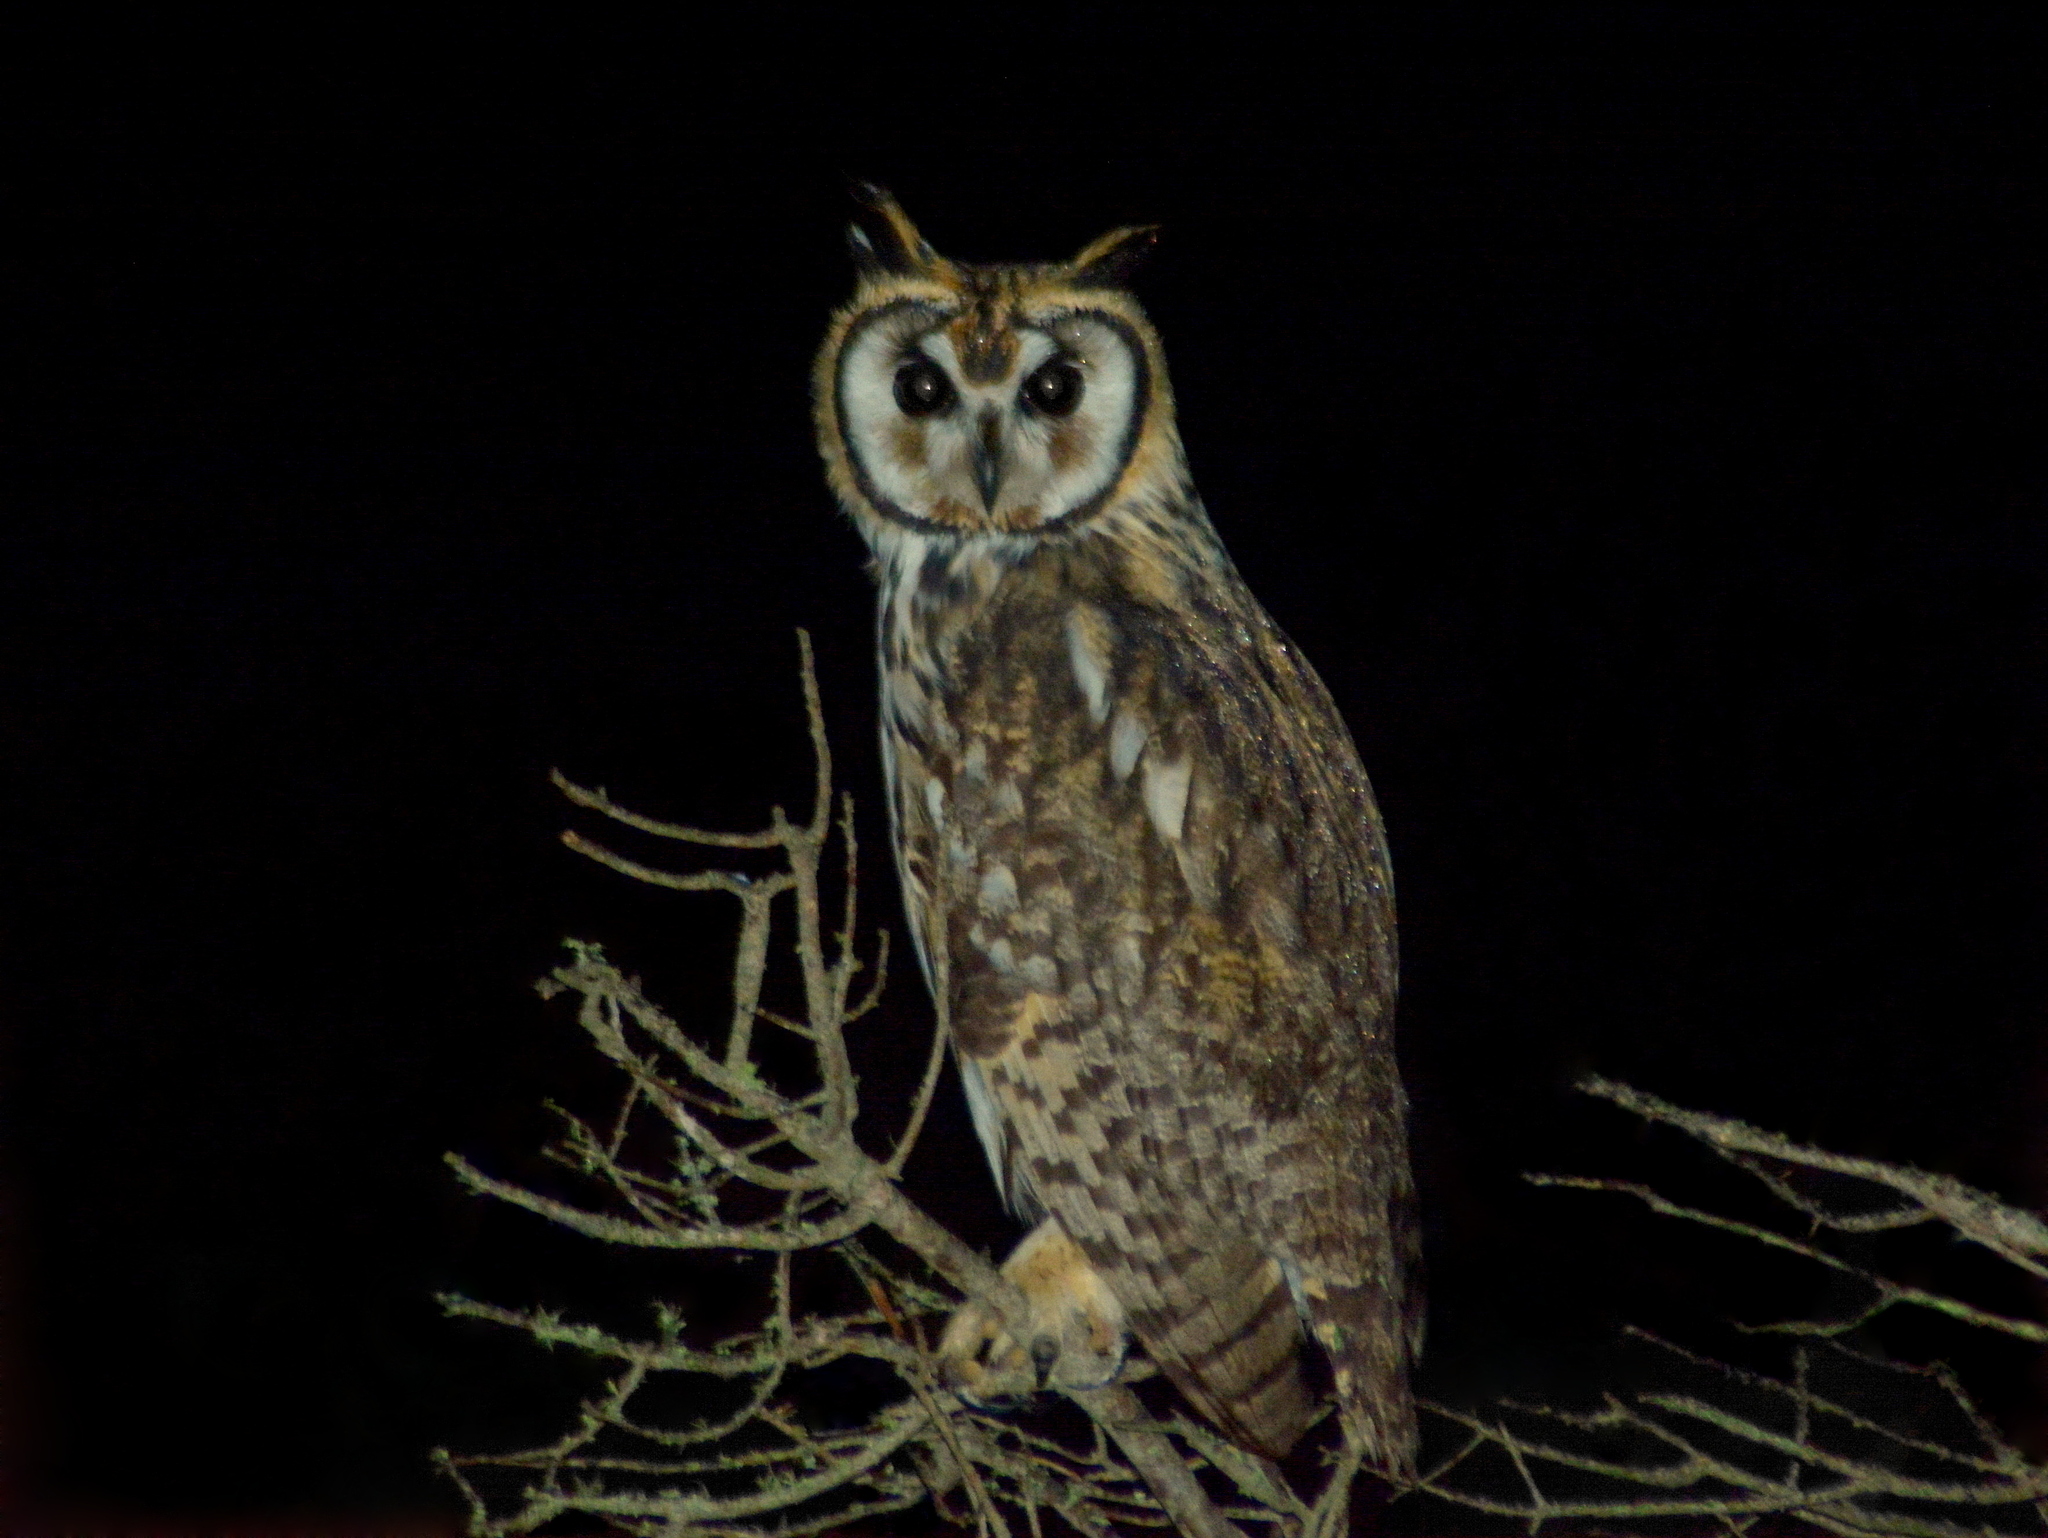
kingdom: Animalia
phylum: Chordata
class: Aves
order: Strigiformes
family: Strigidae
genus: Pseudoscops
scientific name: Pseudoscops clamator
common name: Striped owl
